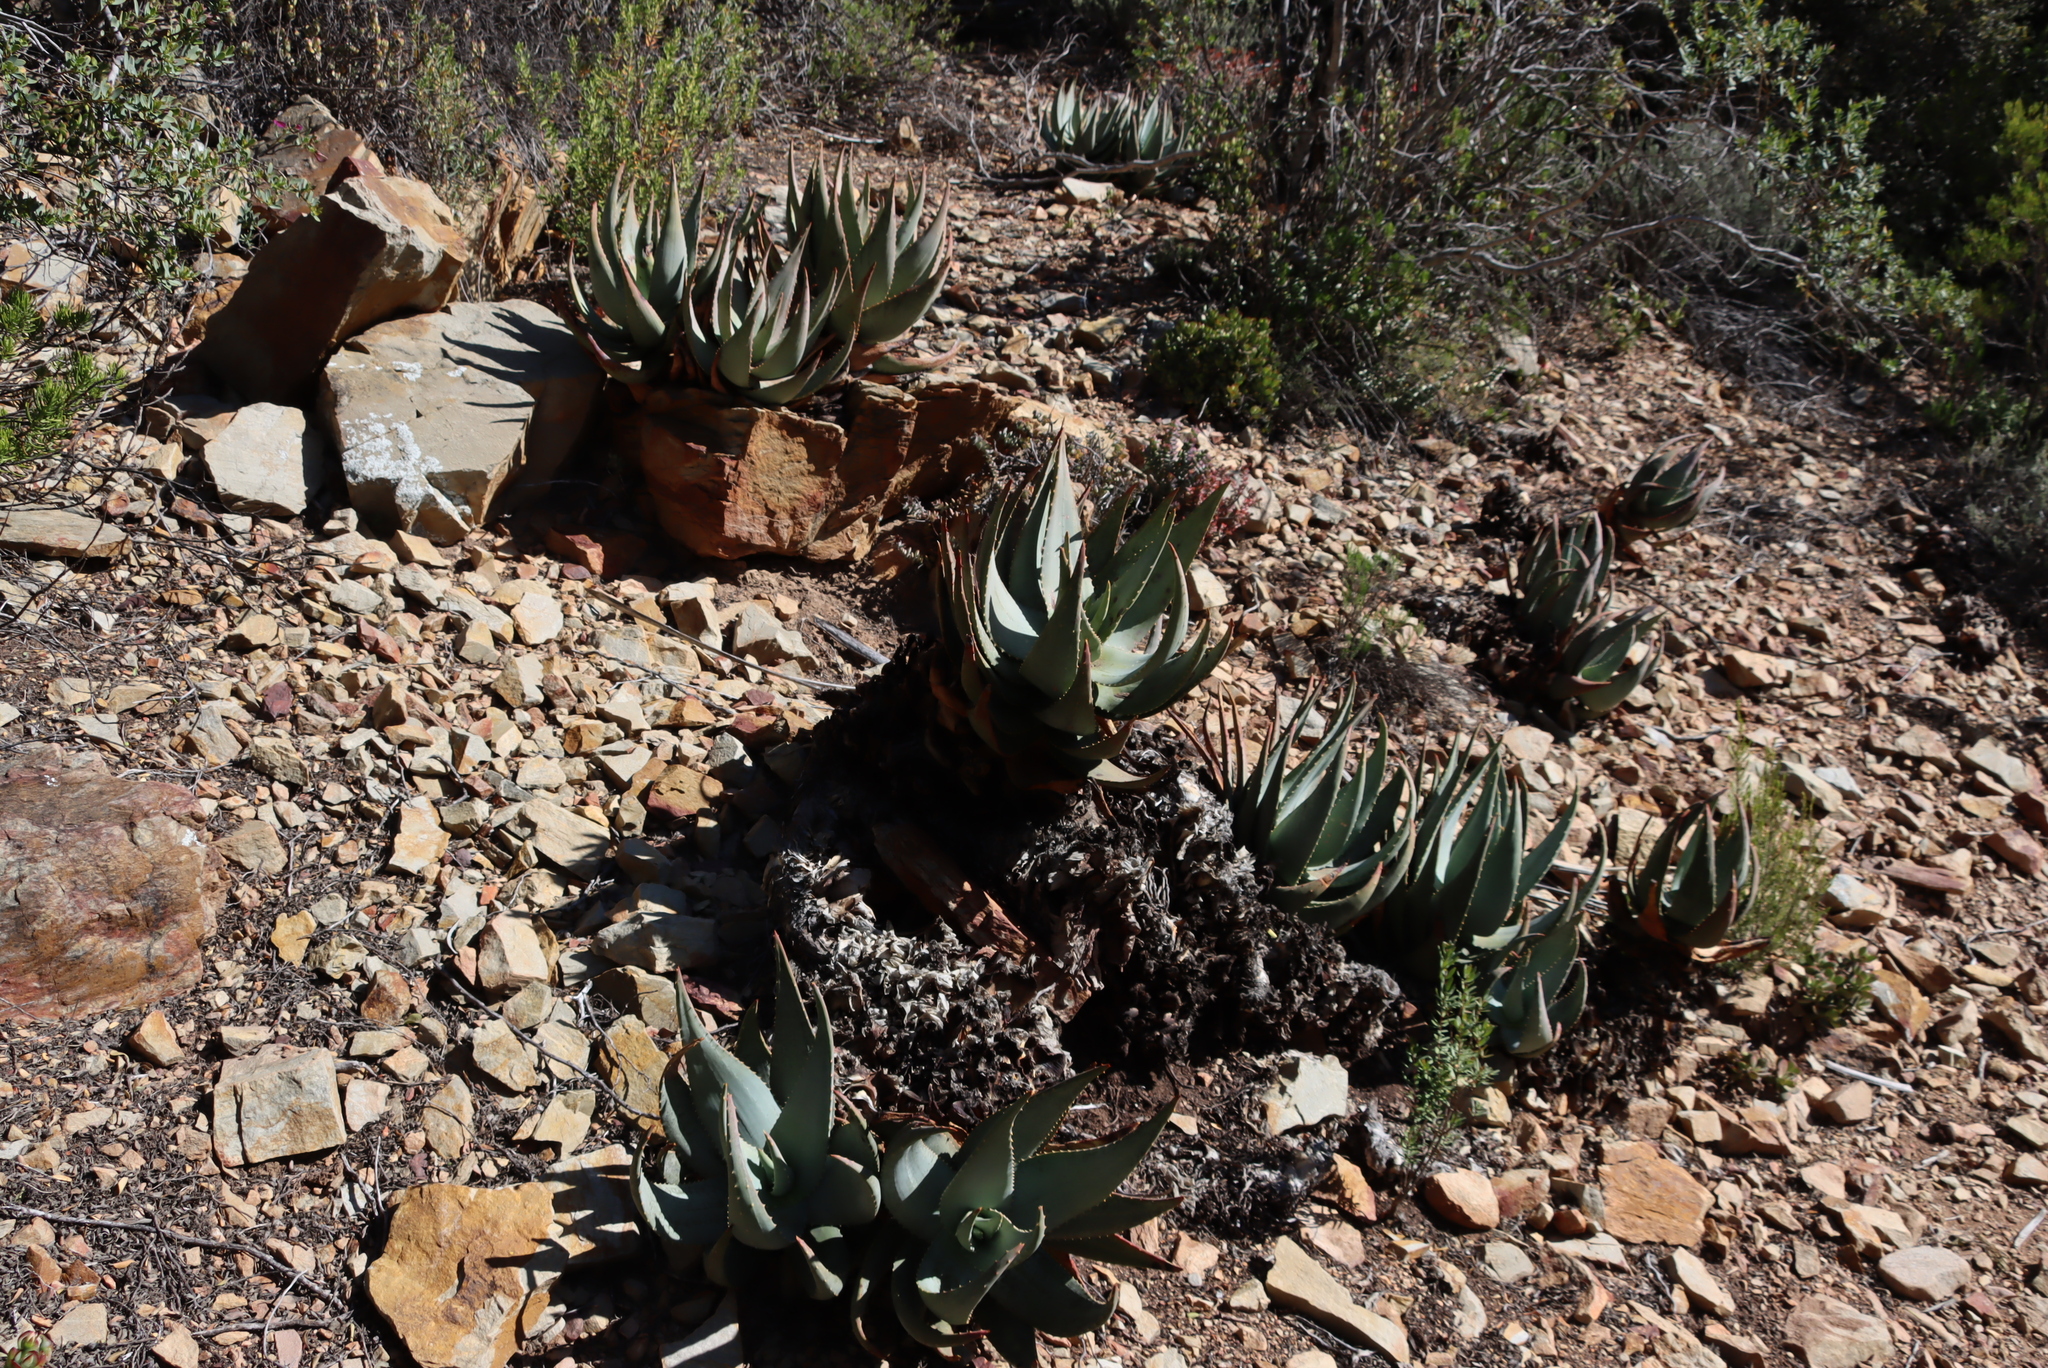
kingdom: Plantae
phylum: Tracheophyta
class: Liliopsida
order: Asparagales
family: Asphodelaceae
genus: Aloe
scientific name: Aloe comptonii
